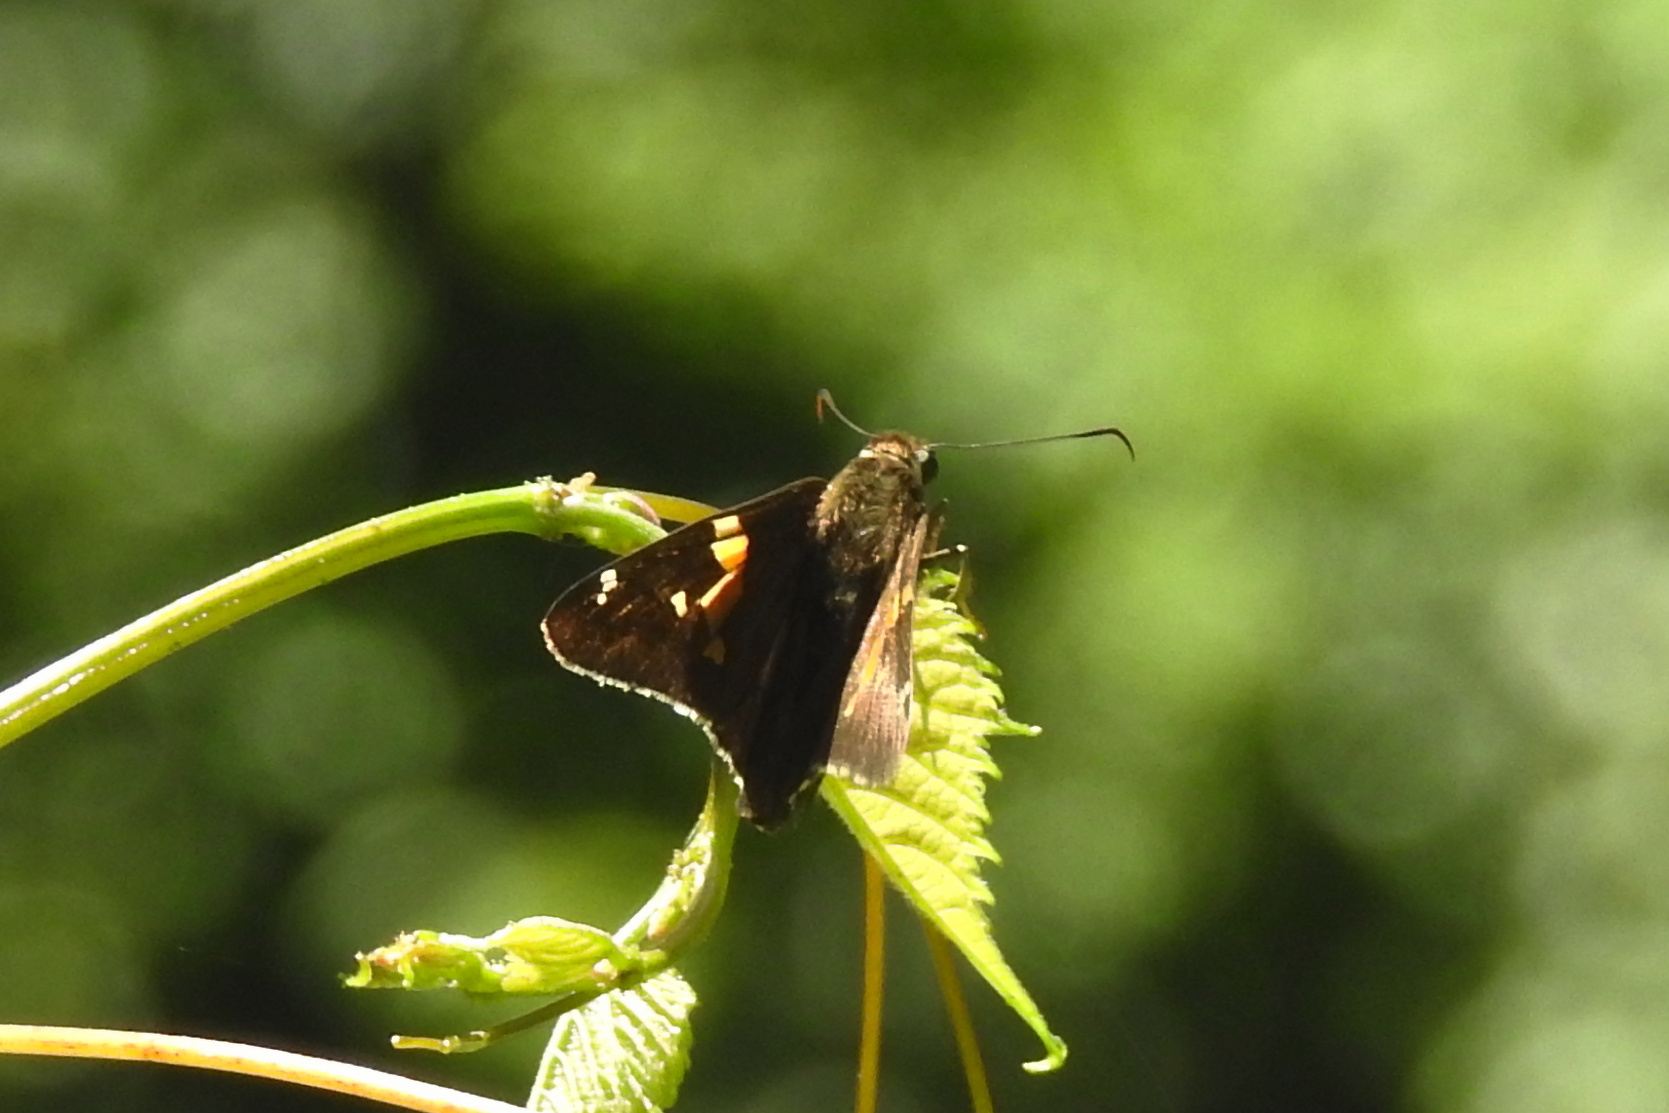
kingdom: Animalia
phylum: Arthropoda
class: Insecta
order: Lepidoptera
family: Hesperiidae
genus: Epargyreus
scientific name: Epargyreus clarus
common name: Silver-spotted skipper
